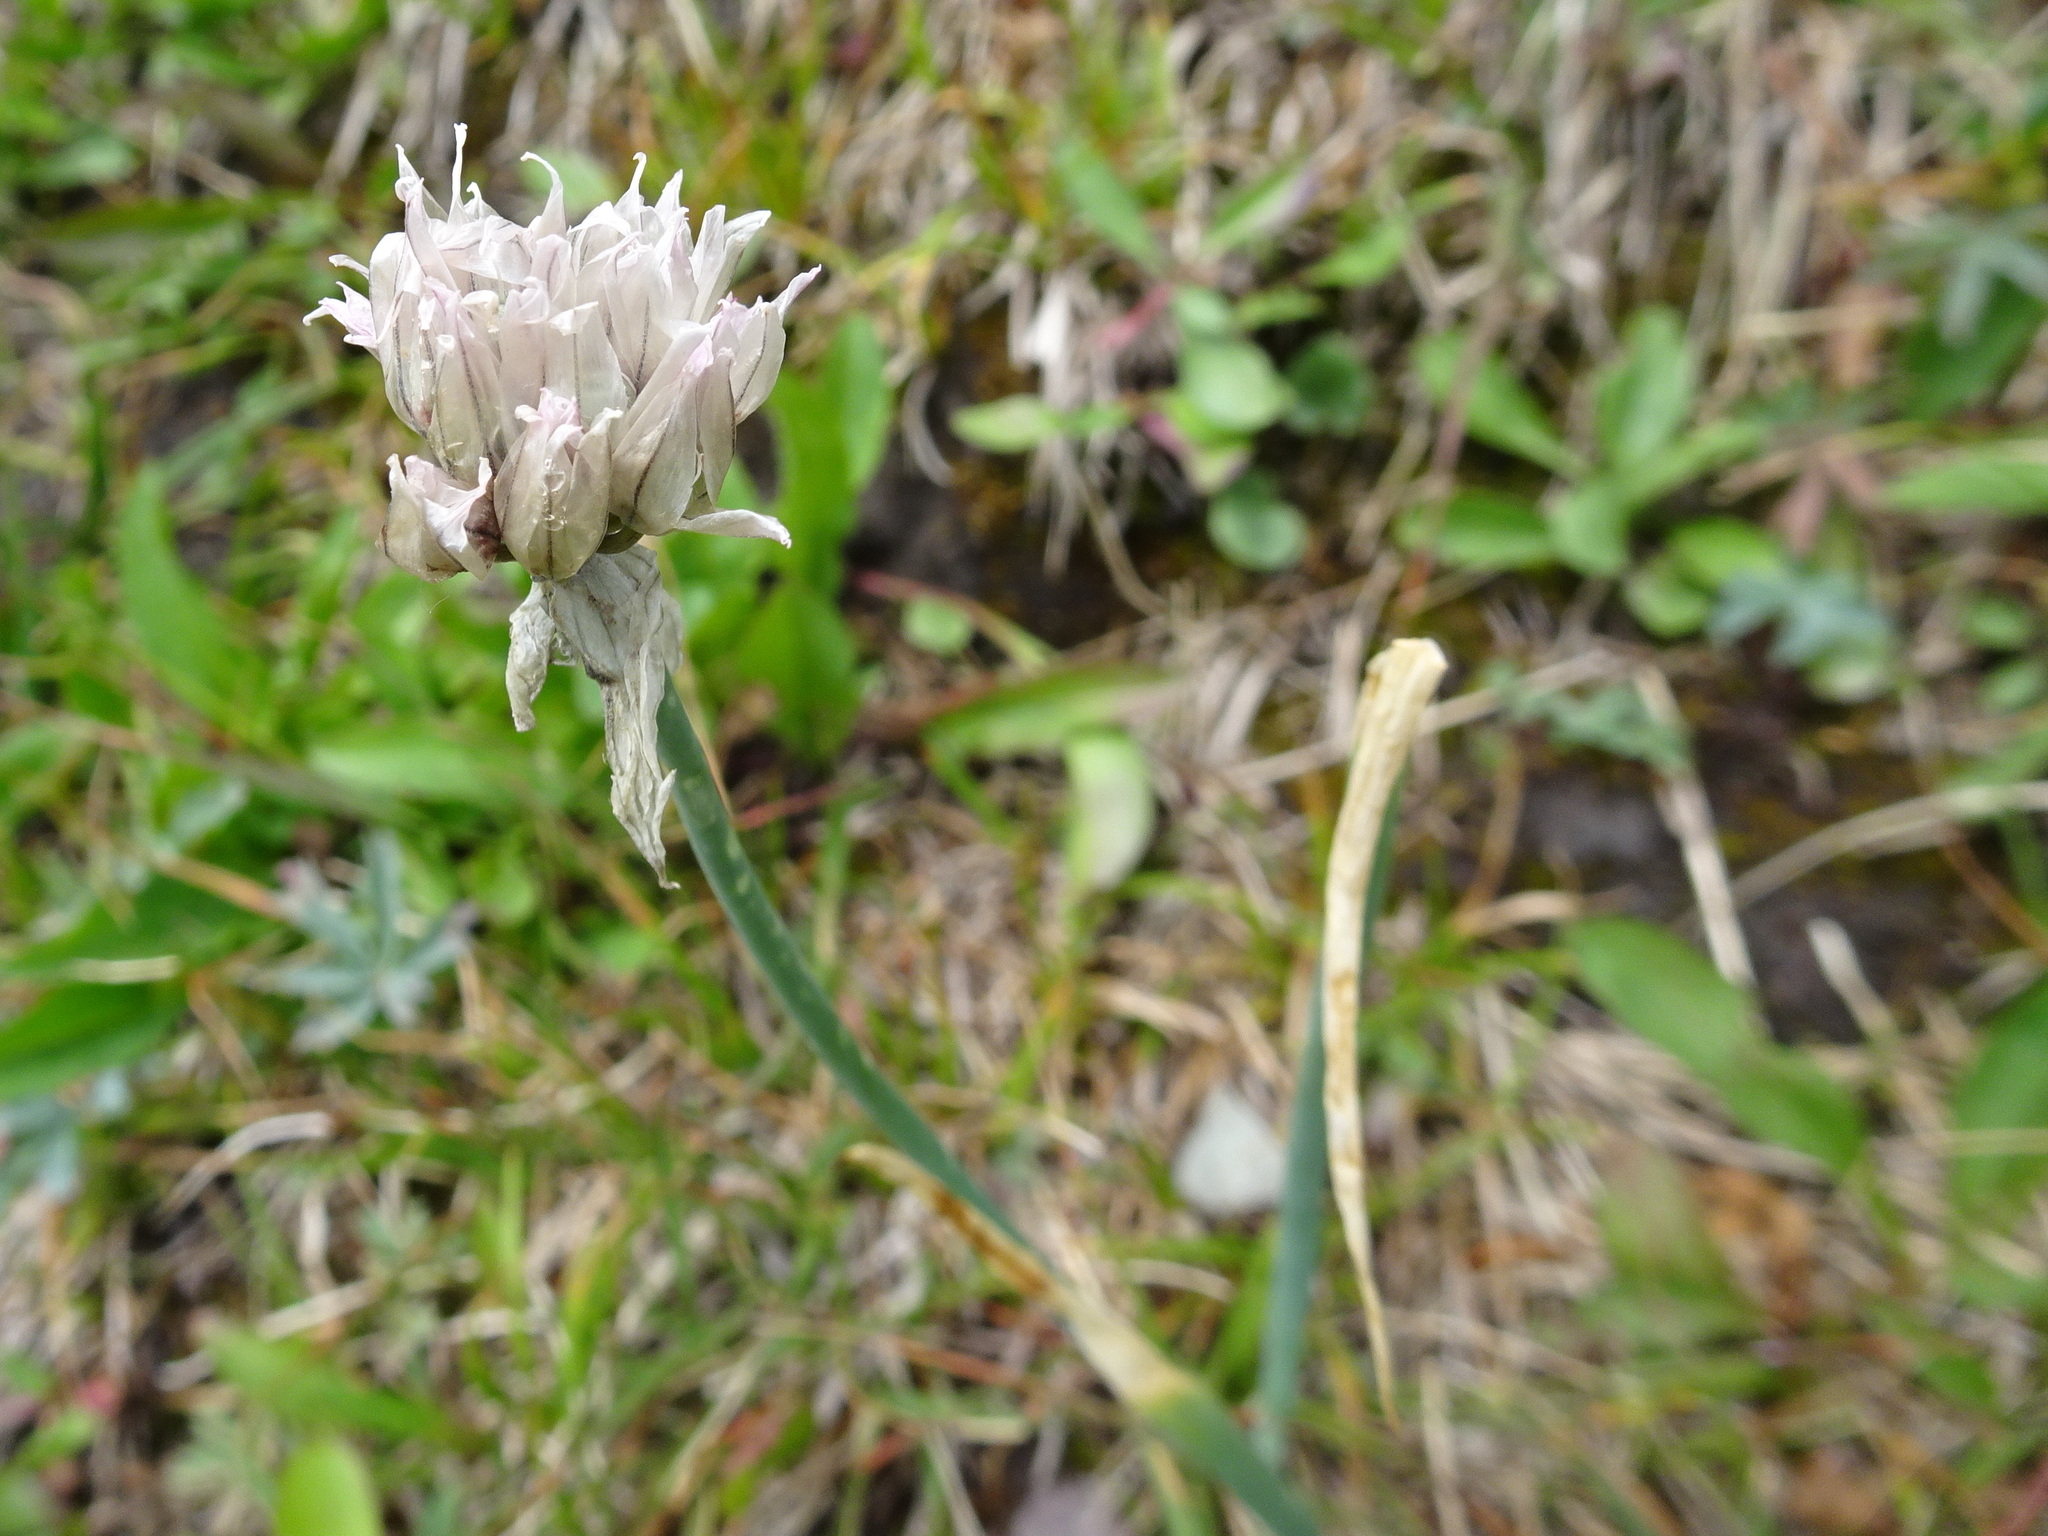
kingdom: Plantae
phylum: Tracheophyta
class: Liliopsida
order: Asparagales
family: Amaryllidaceae
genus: Allium
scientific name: Allium schoenoprasum
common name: Chives
